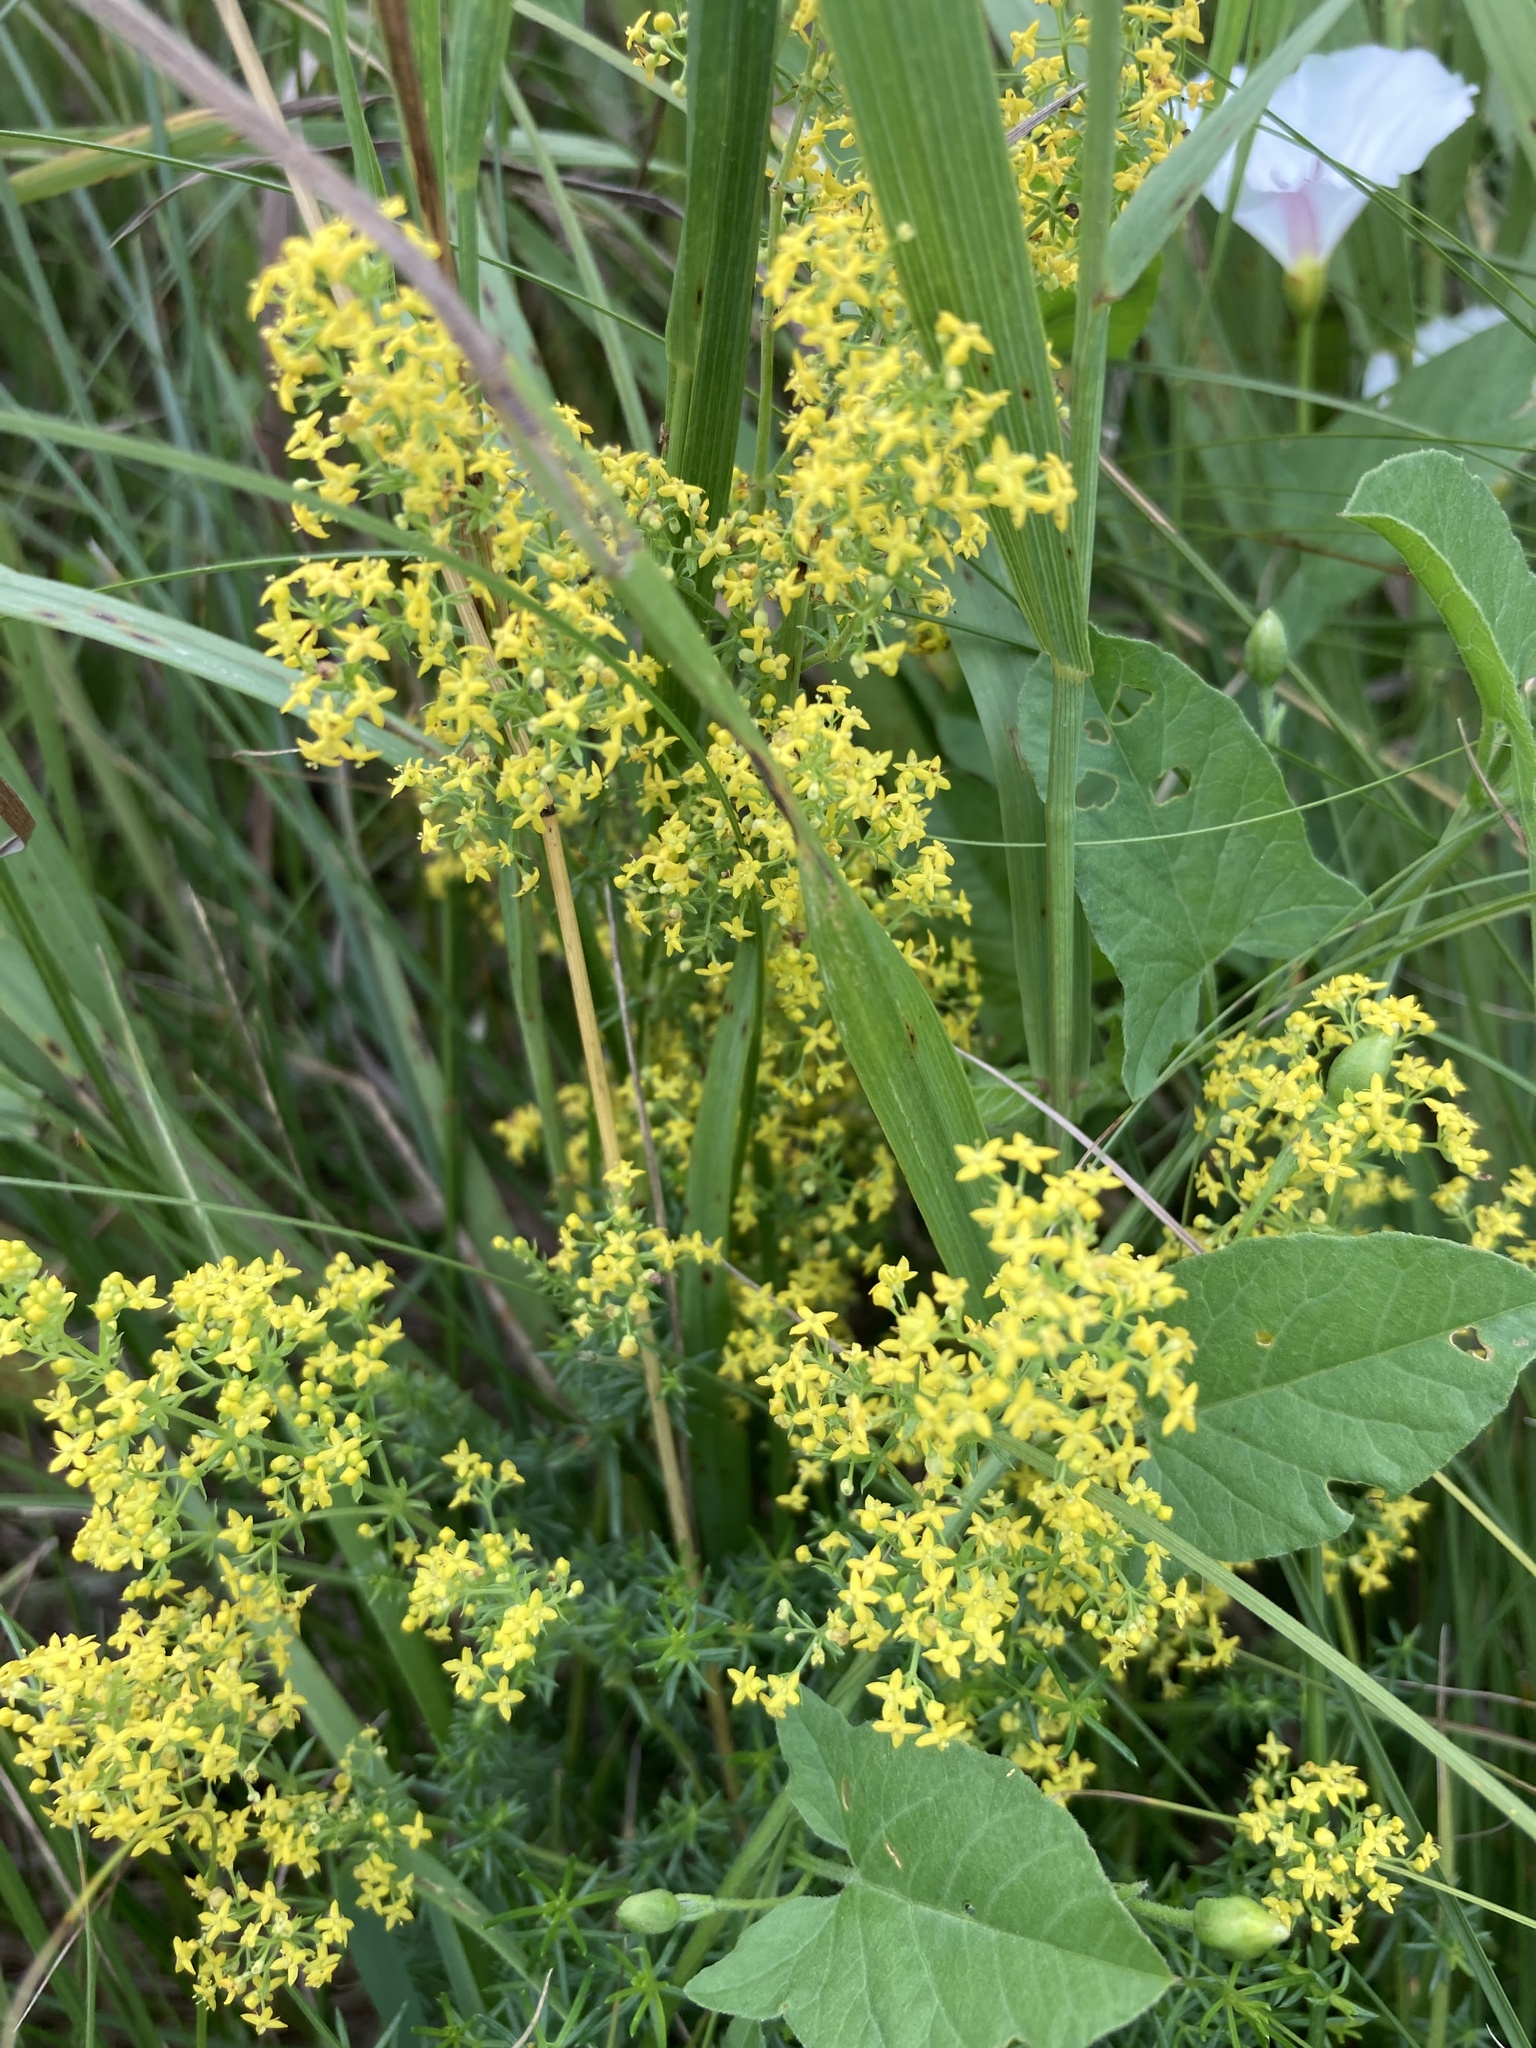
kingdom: Plantae
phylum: Tracheophyta
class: Magnoliopsida
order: Gentianales
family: Rubiaceae
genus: Galium
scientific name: Galium verum
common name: Lady's bedstraw
